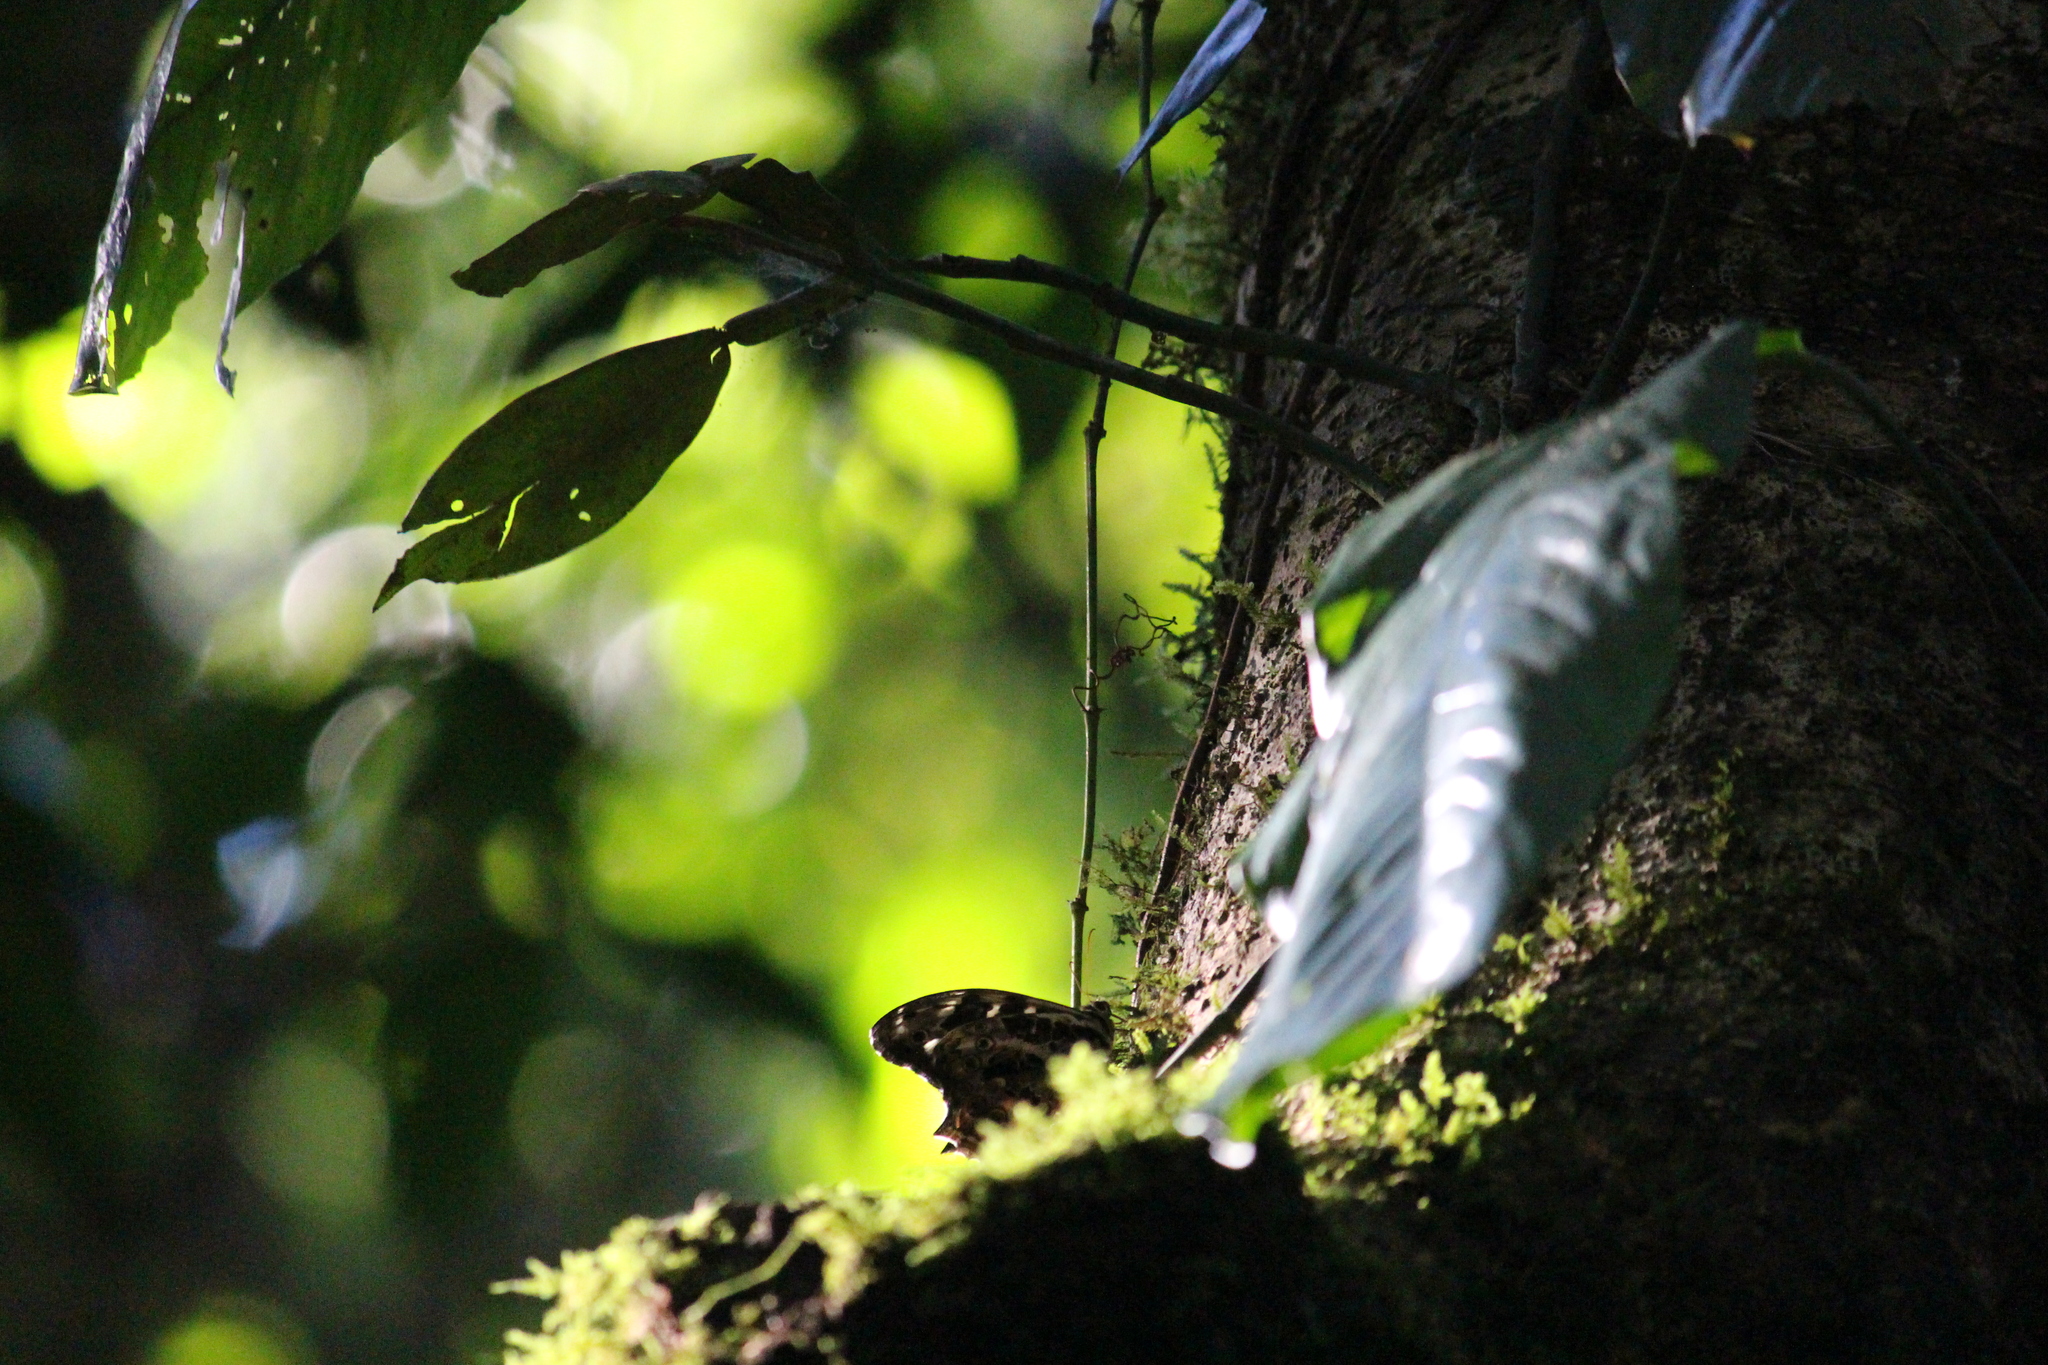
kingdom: Animalia
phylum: Arthropoda
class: Insecta
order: Lepidoptera
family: Nymphalidae
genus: Neope
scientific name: Neope bhadra
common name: Tailed labyrinth
